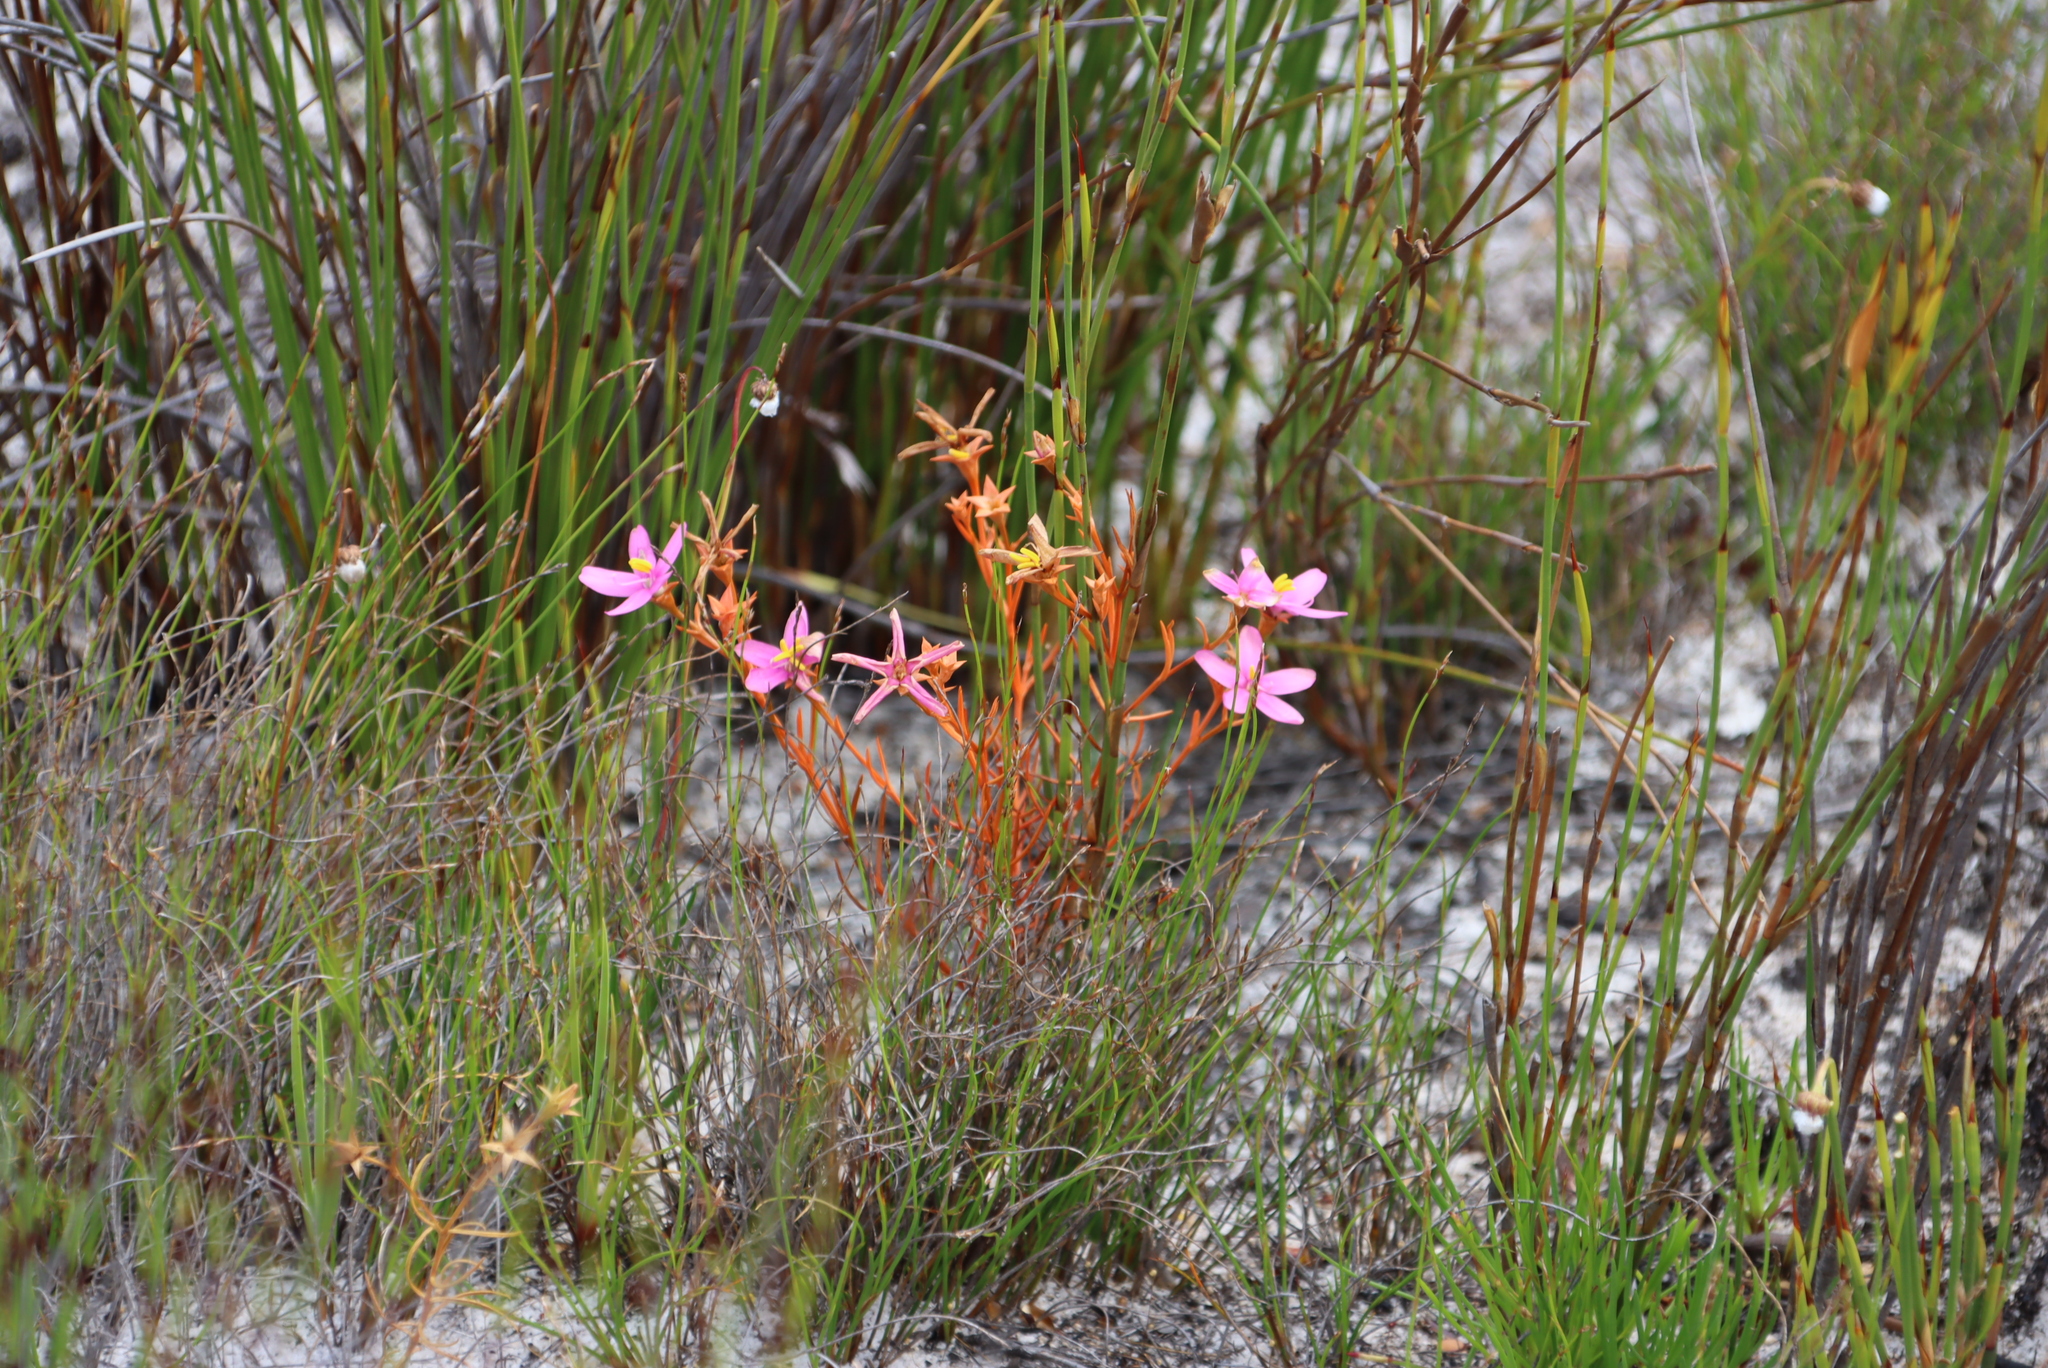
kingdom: Plantae
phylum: Tracheophyta
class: Magnoliopsida
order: Gentianales
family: Gentianaceae
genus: Chironia
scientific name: Chironia linoides
